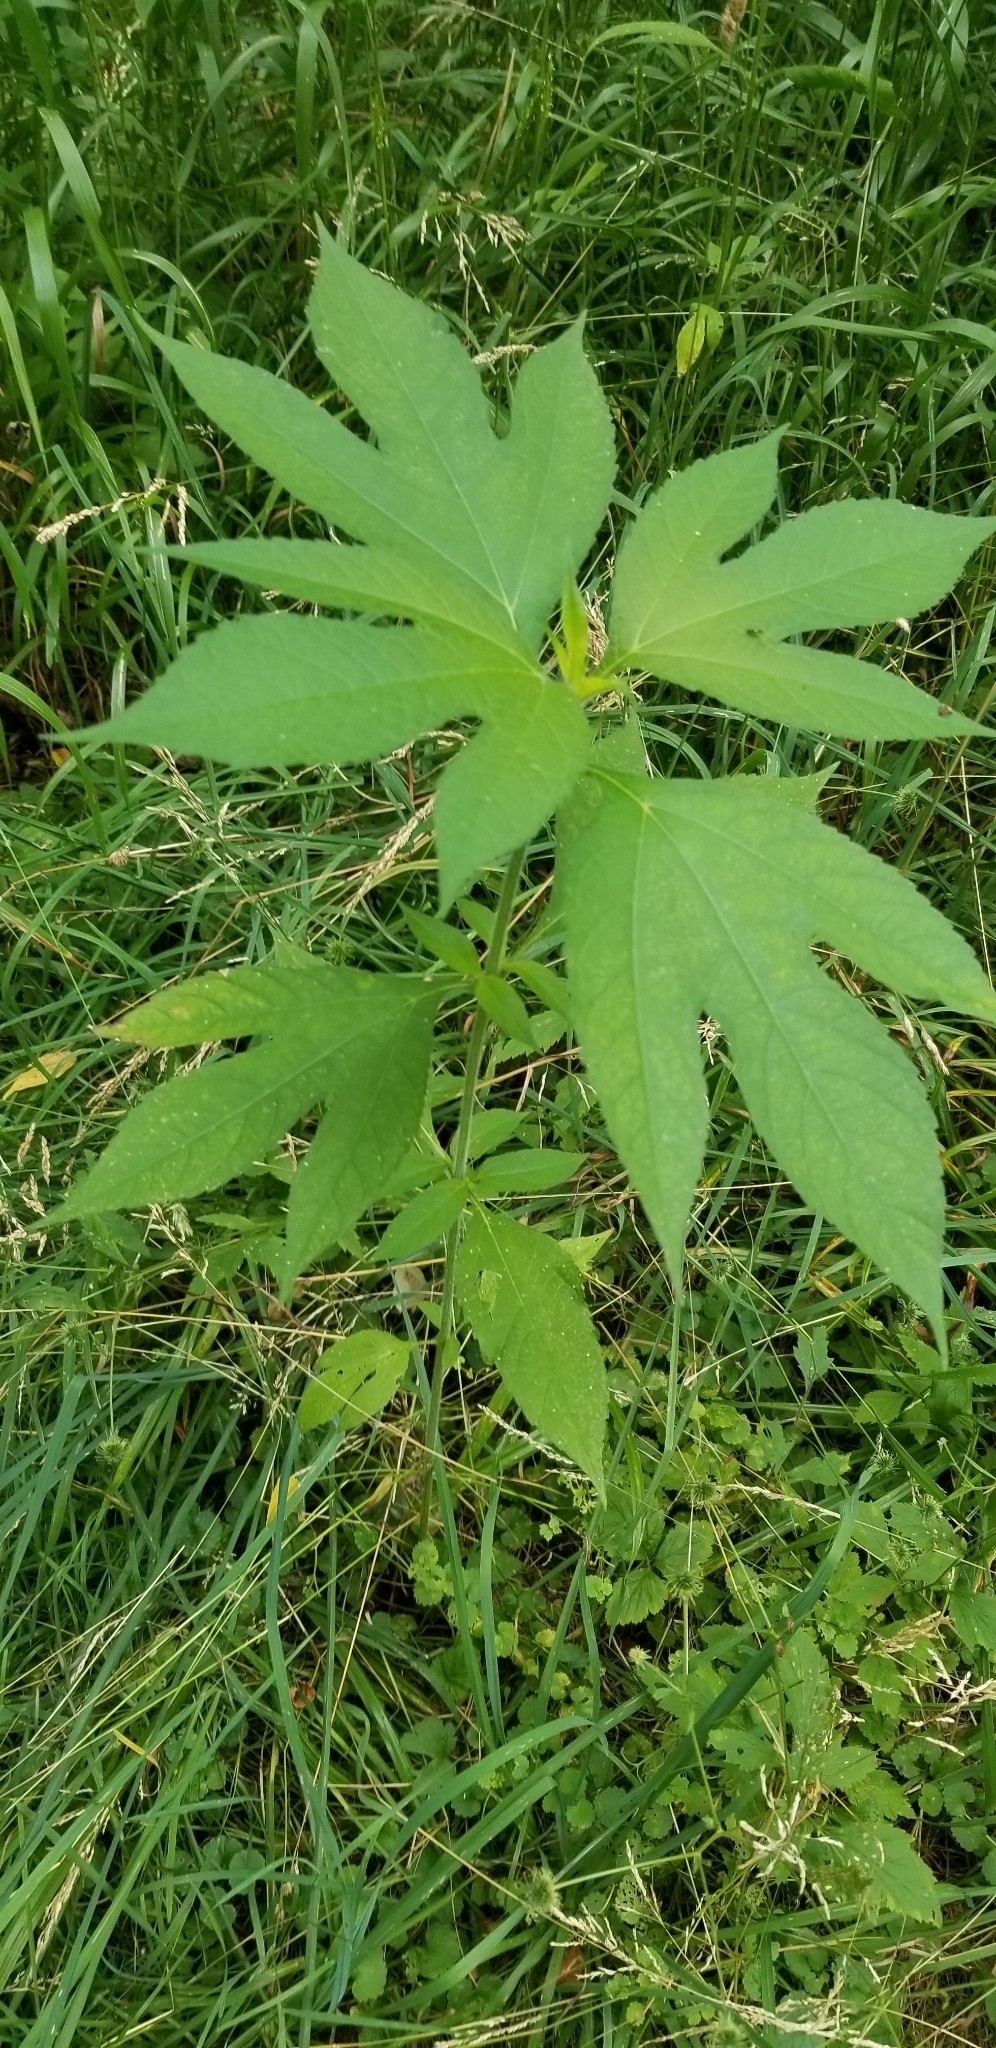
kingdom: Plantae
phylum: Tracheophyta
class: Magnoliopsida
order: Asterales
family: Asteraceae
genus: Ambrosia
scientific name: Ambrosia trifida
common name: Giant ragweed
